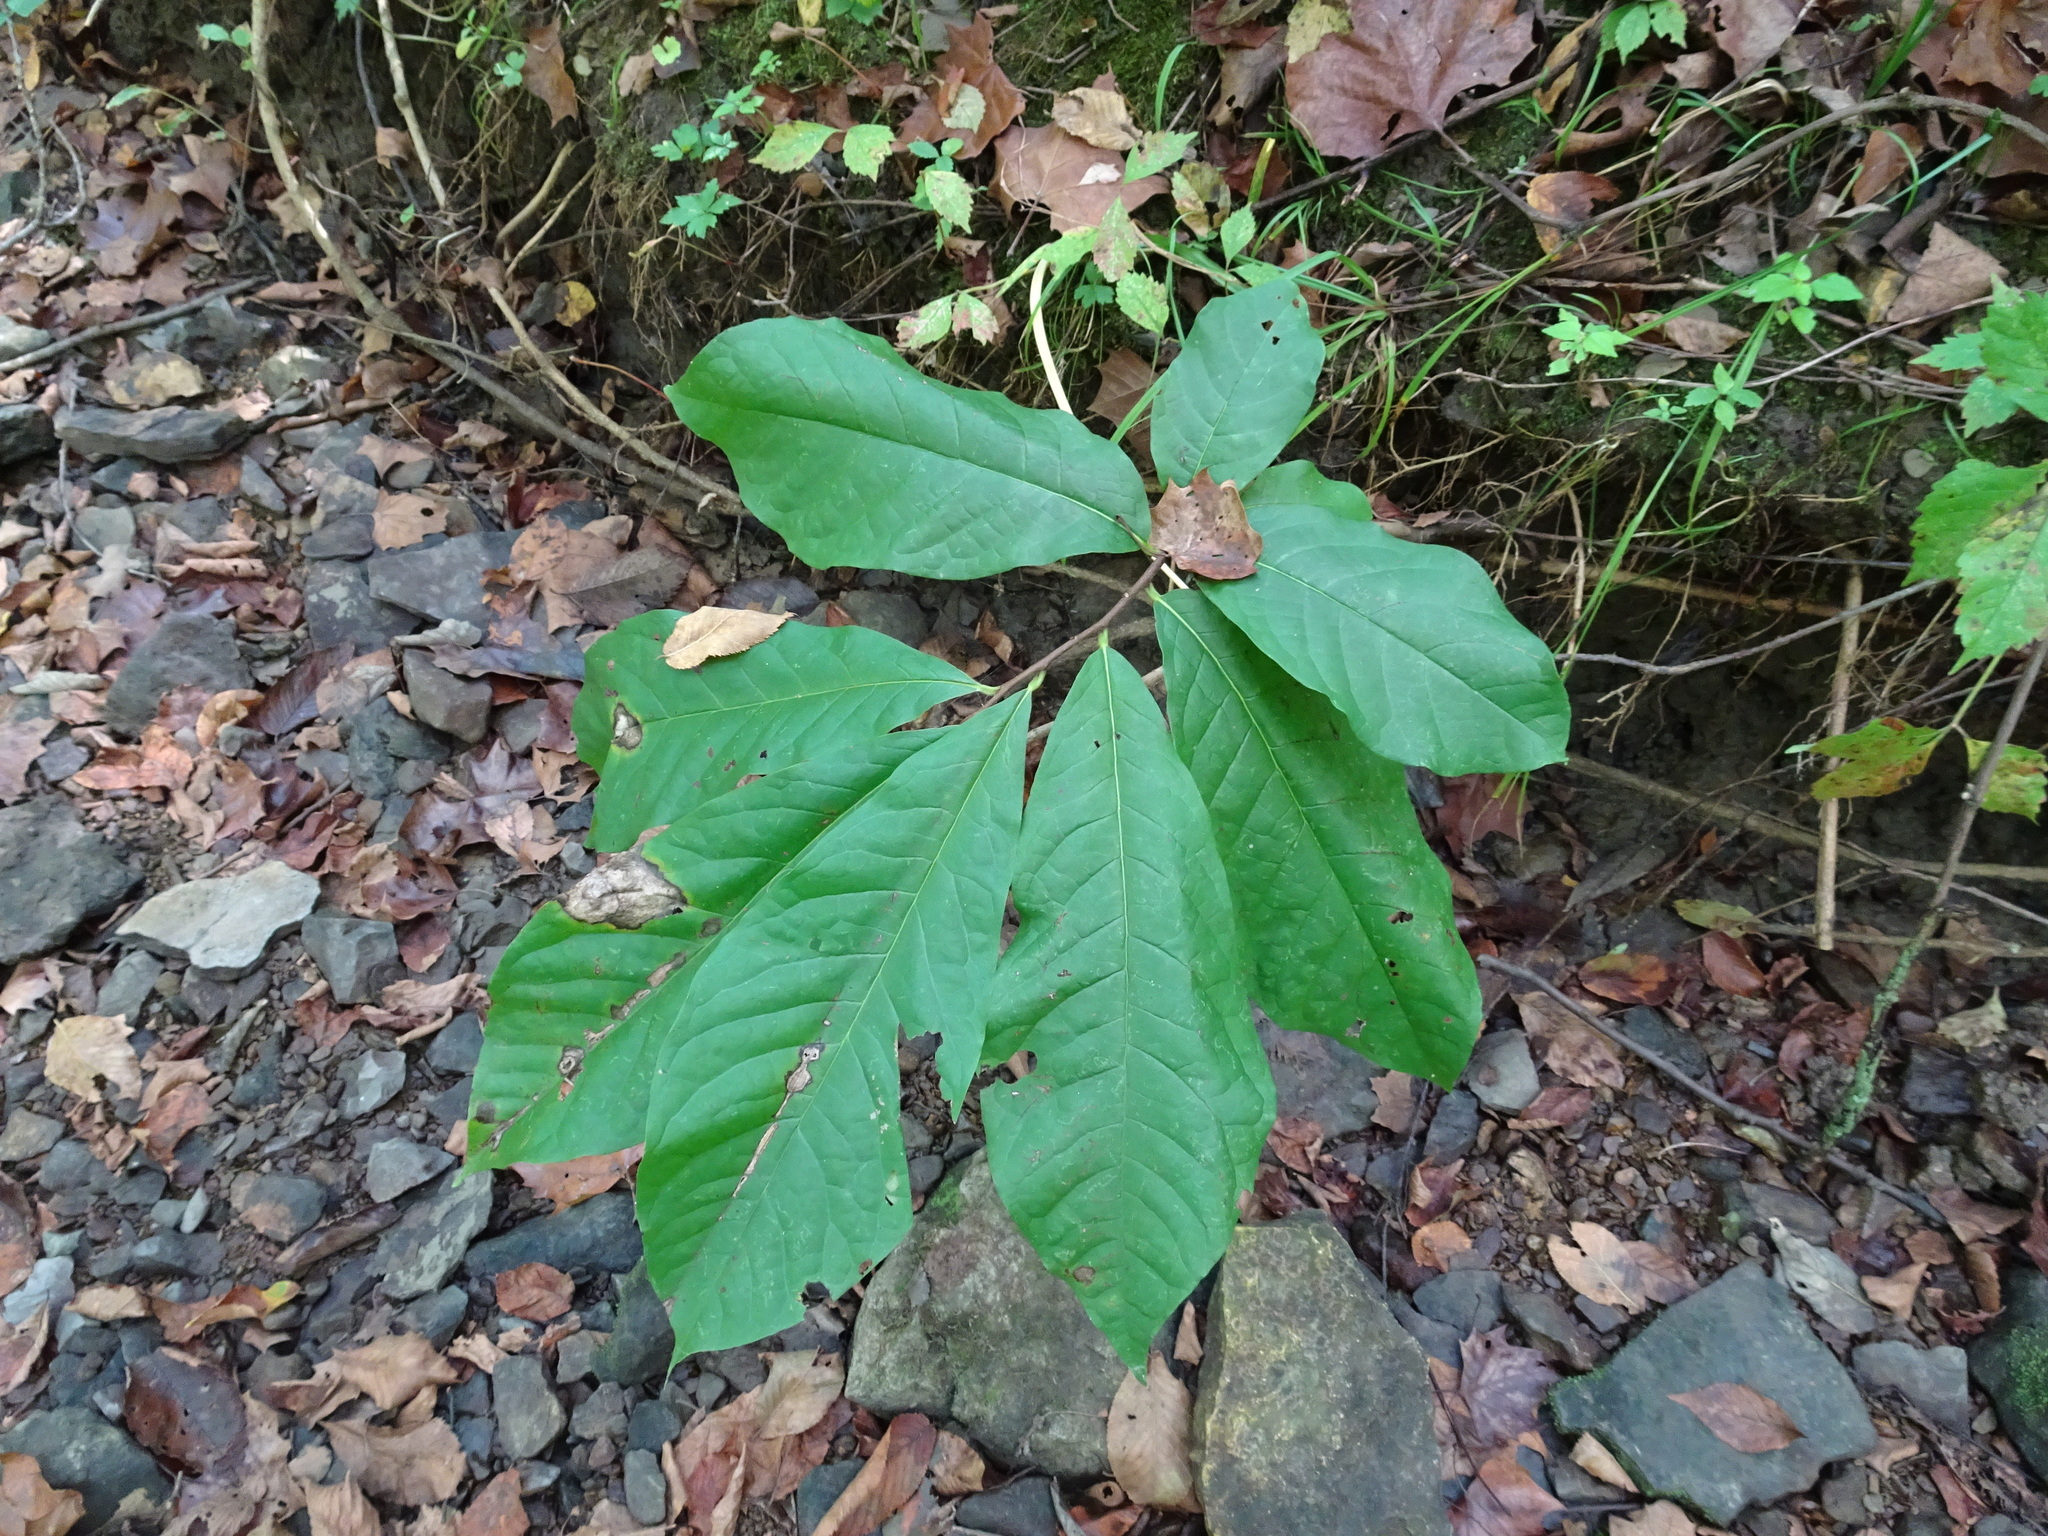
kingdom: Plantae
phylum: Tracheophyta
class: Magnoliopsida
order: Magnoliales
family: Annonaceae
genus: Asimina
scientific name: Asimina triloba
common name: Dog-banana
